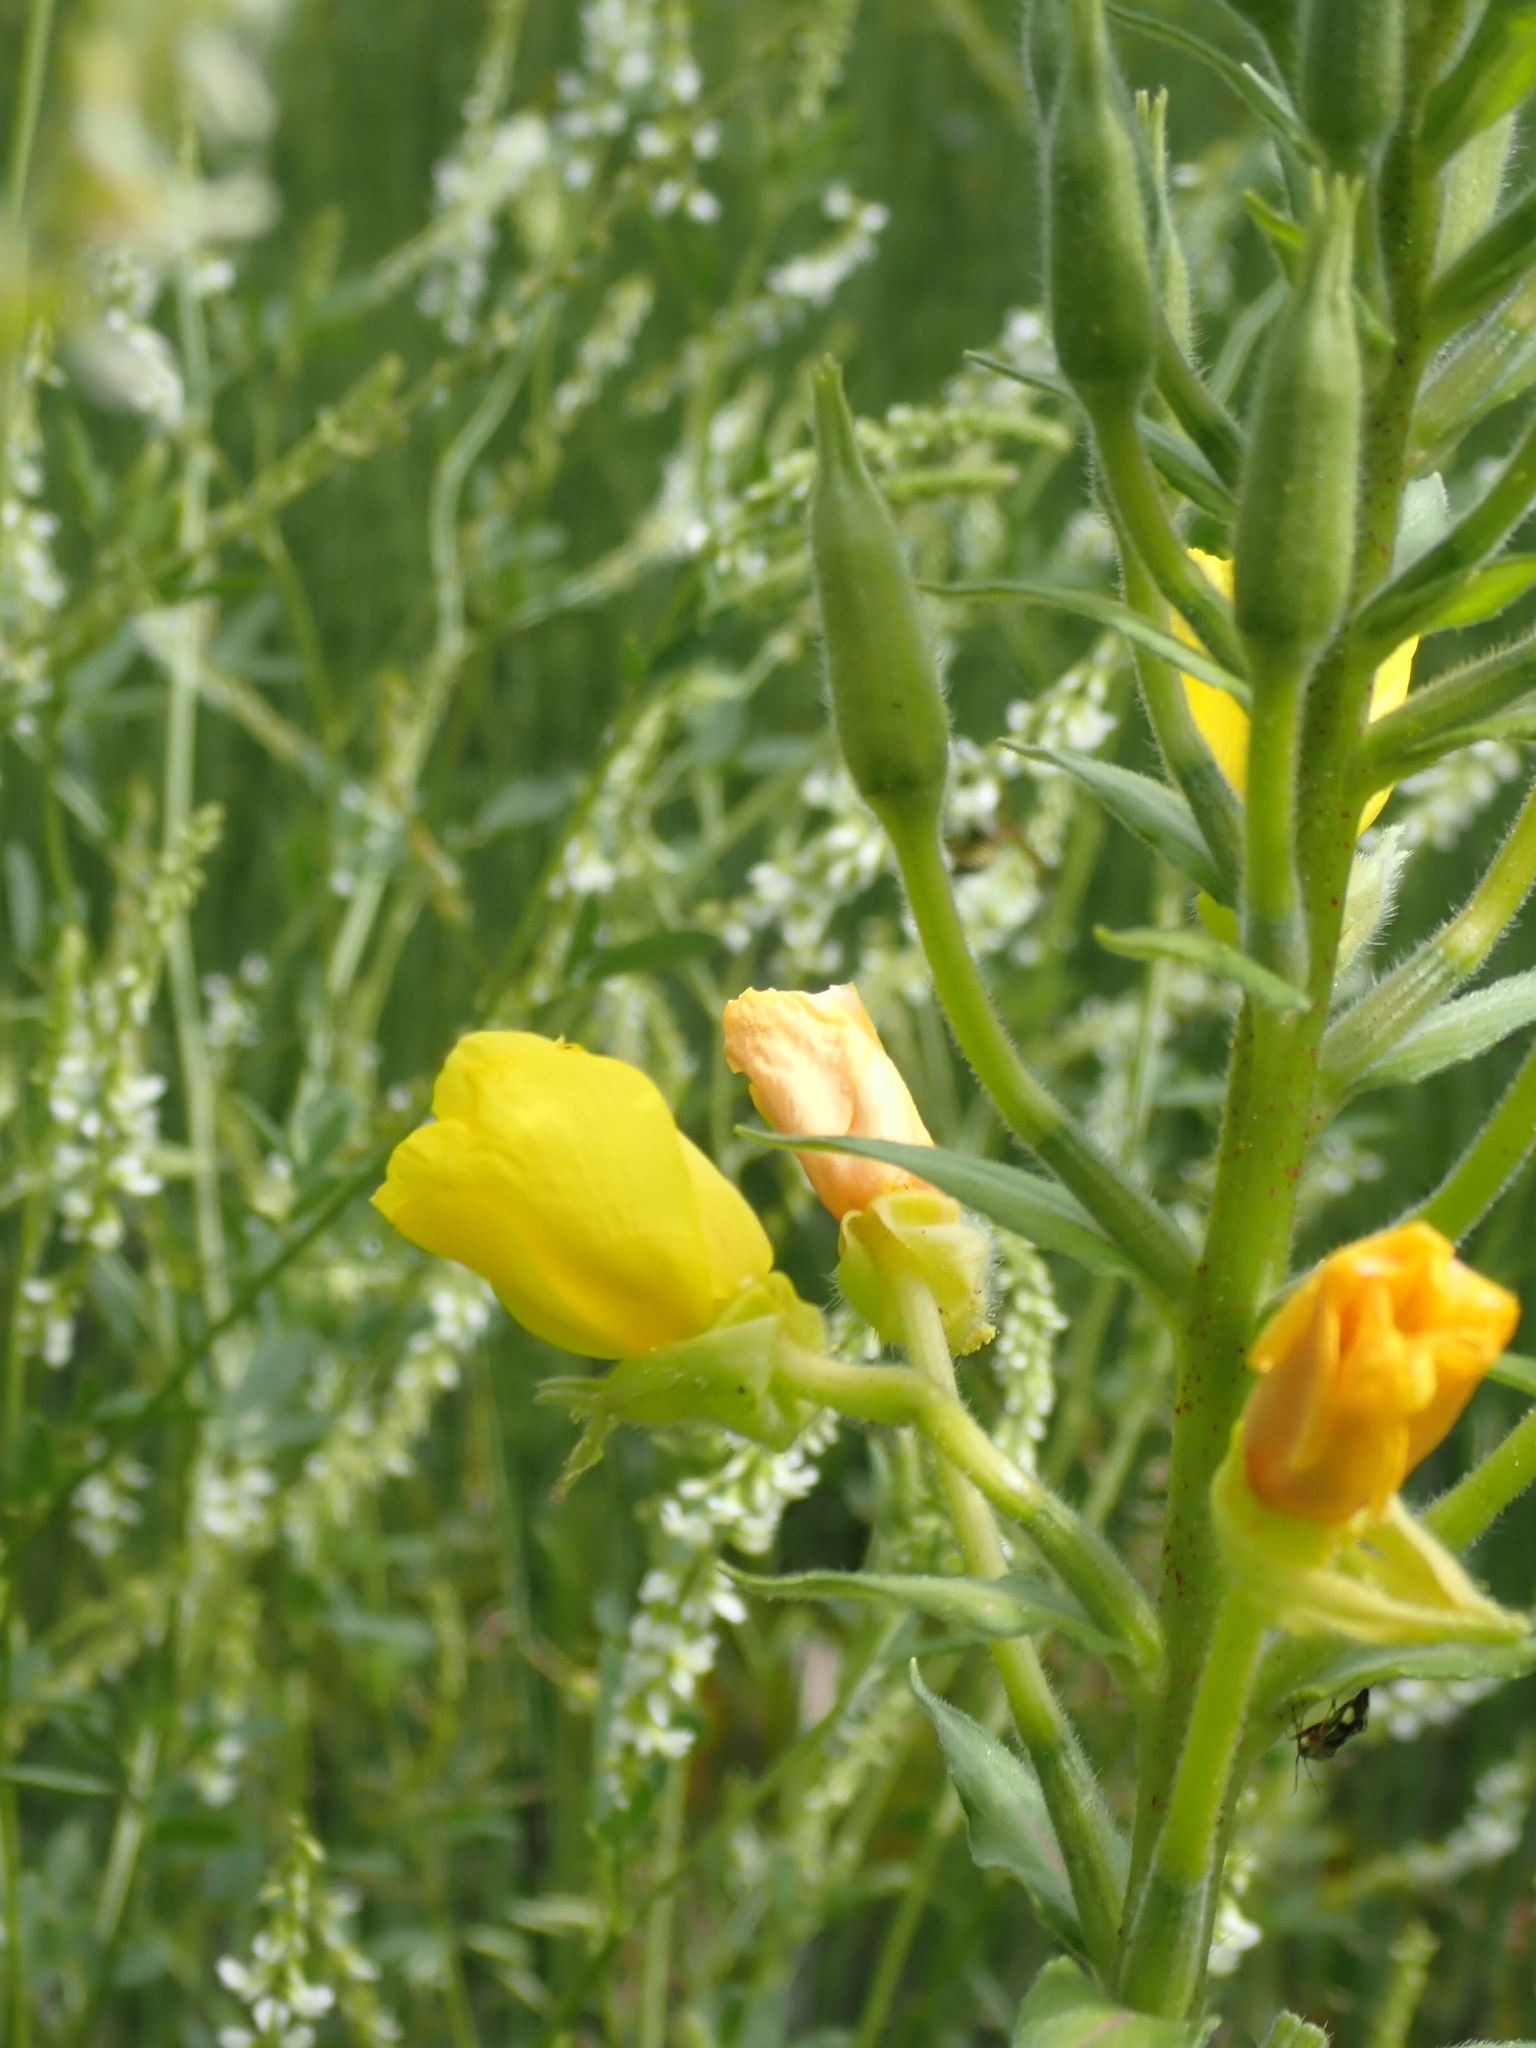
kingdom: Plantae
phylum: Tracheophyta
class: Magnoliopsida
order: Myrtales
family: Onagraceae
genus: Oenothera
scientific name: Oenothera biennis
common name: Common evening-primrose
